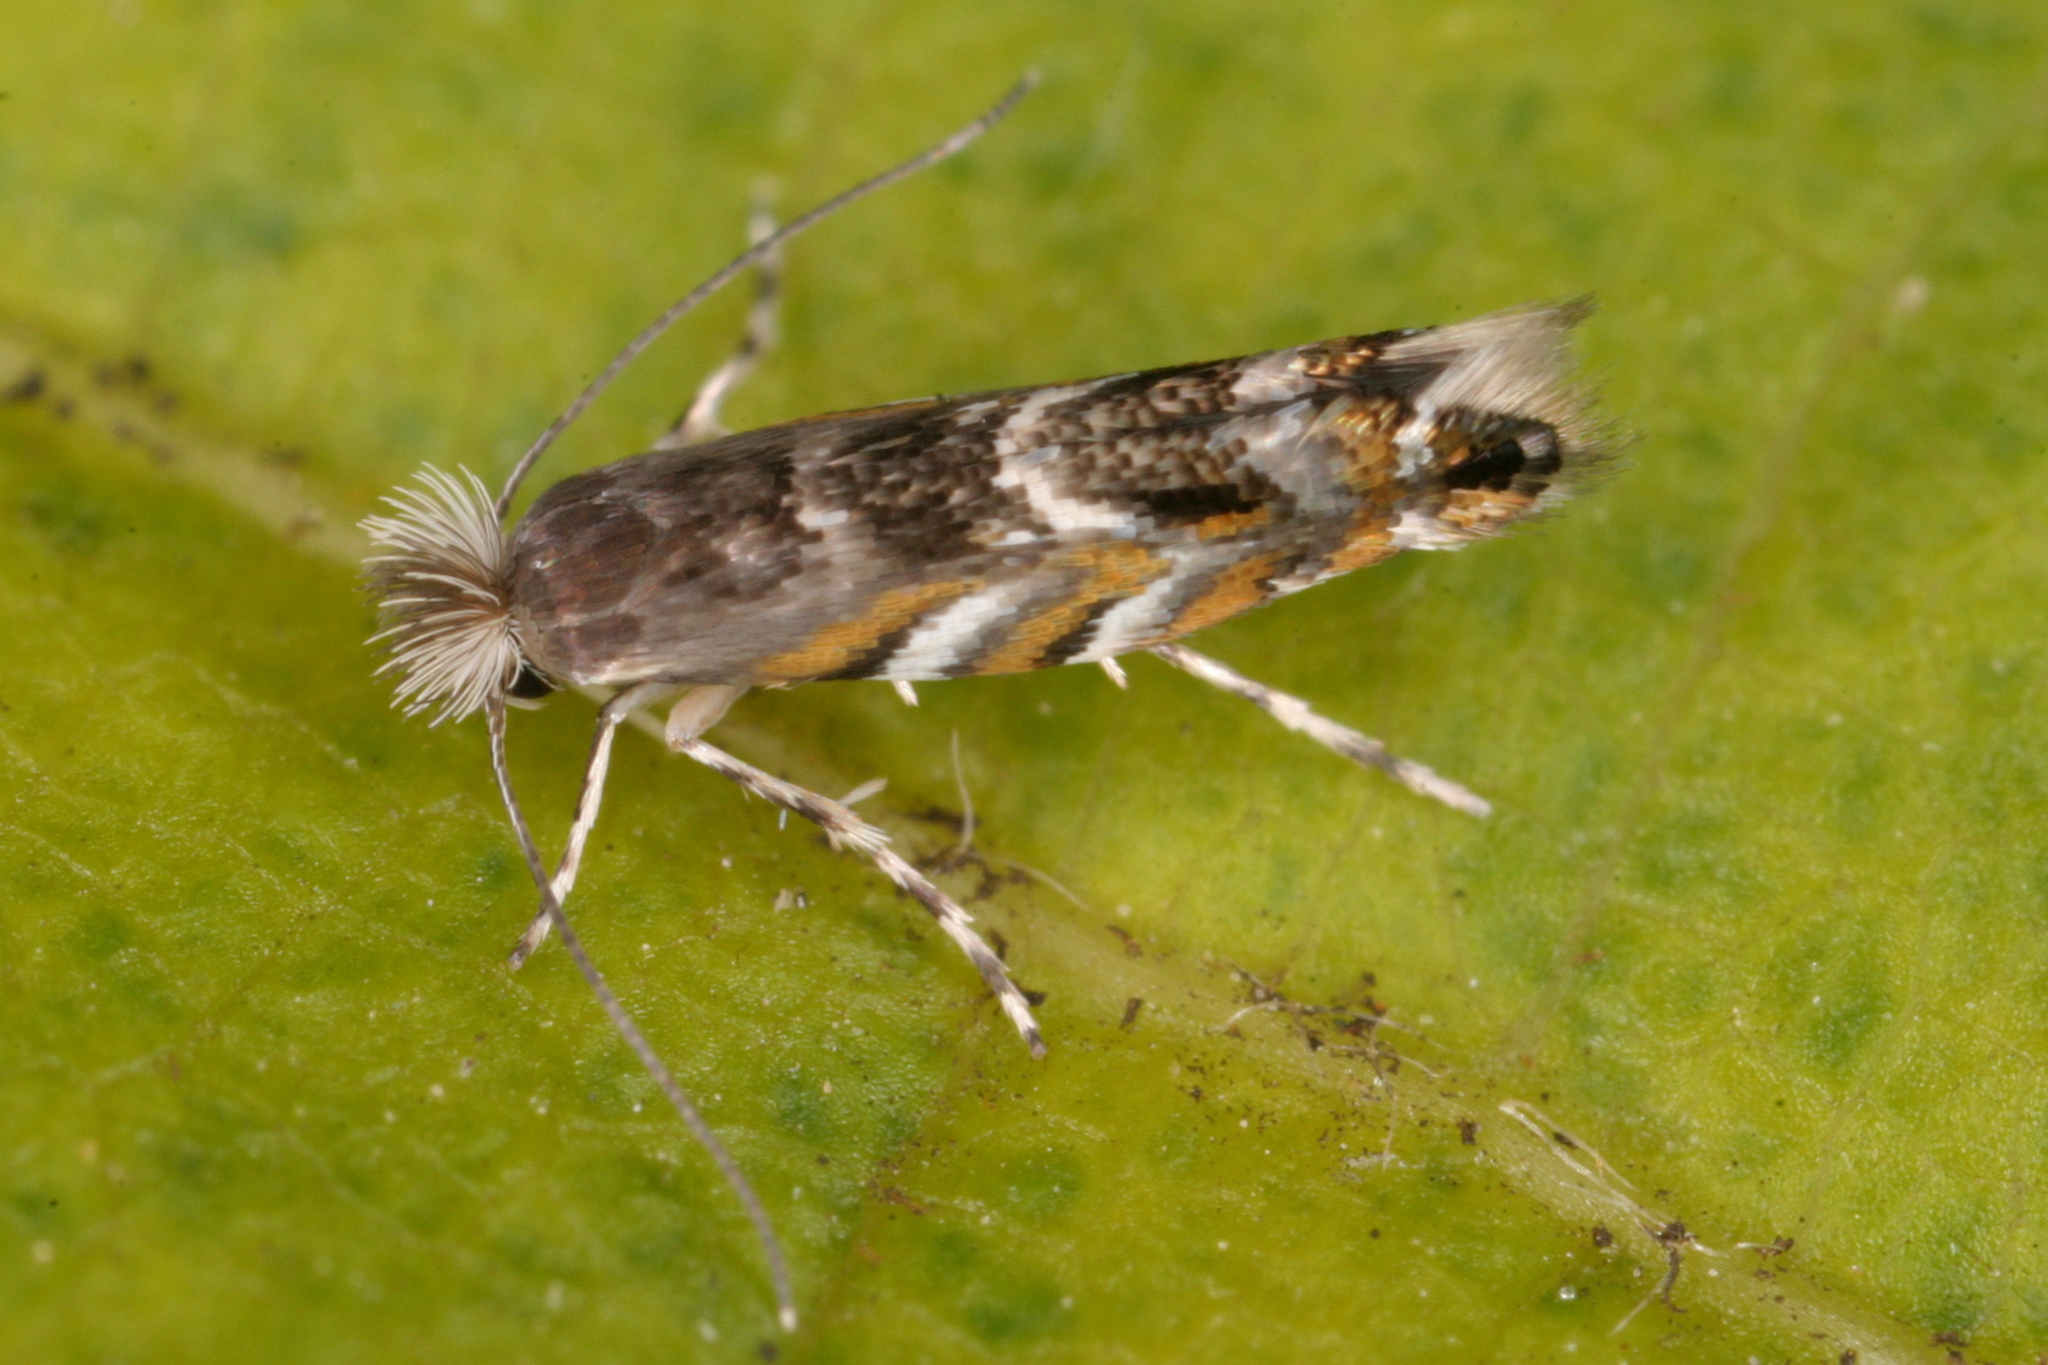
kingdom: Animalia
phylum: Arthropoda
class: Insecta
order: Lepidoptera
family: Gracillariidae
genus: Macrosaccus
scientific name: Macrosaccus robiniella
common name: Leaf blotch miner moth
